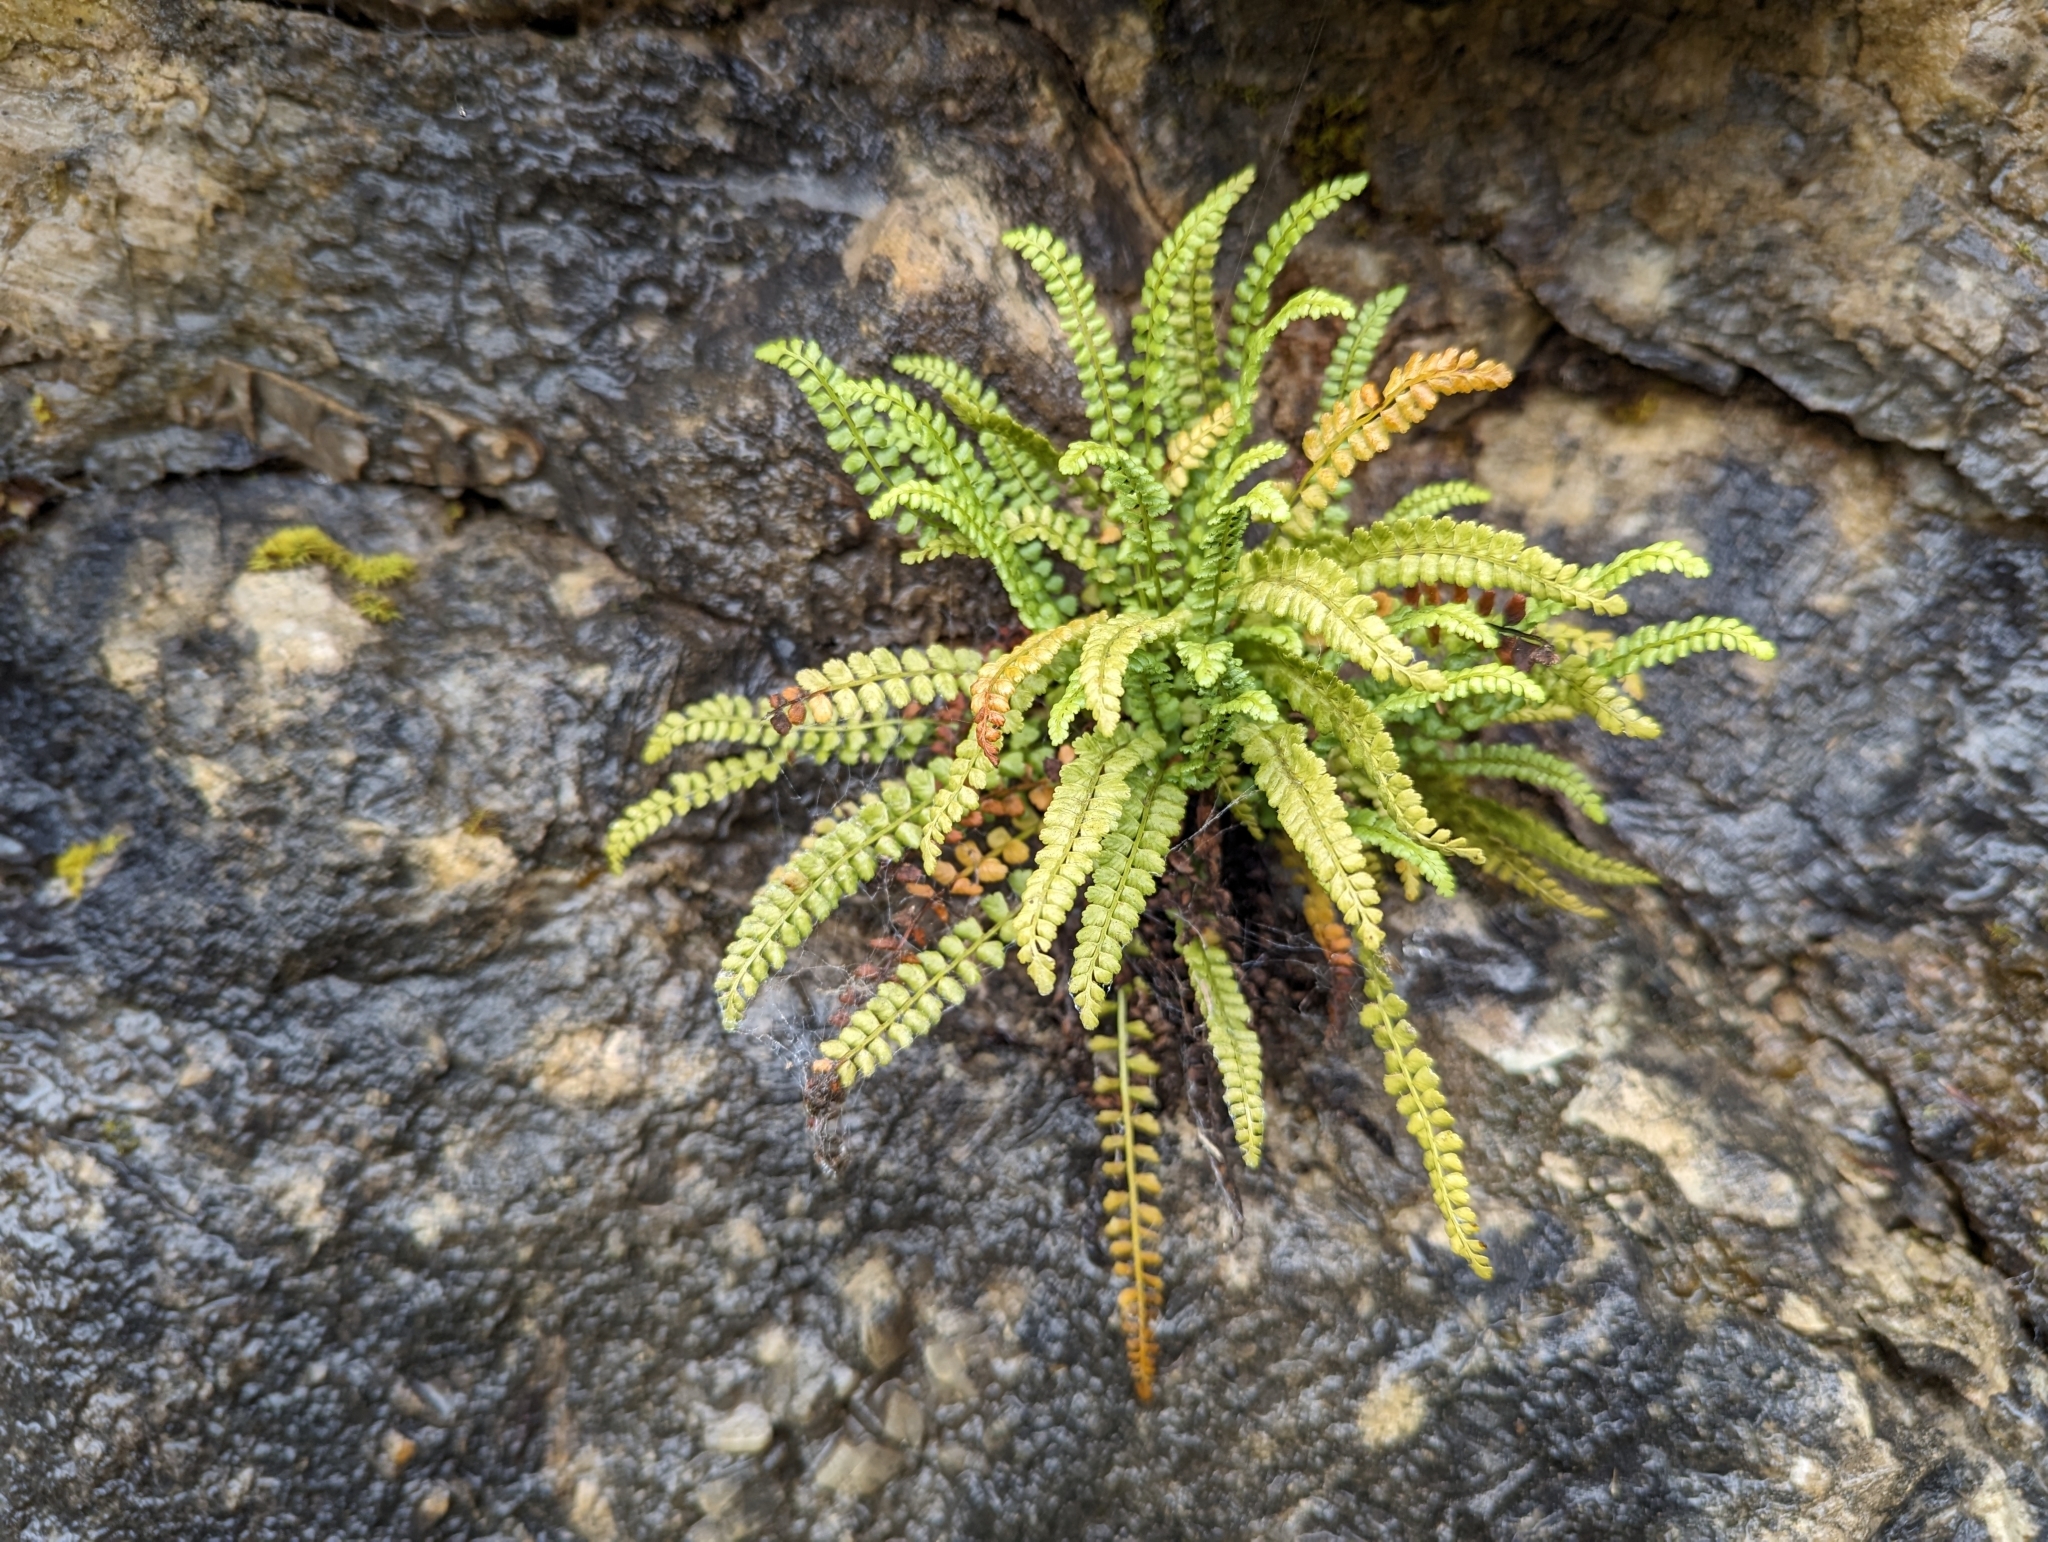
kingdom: Plantae
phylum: Tracheophyta
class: Polypodiopsida
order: Polypodiales
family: Aspleniaceae
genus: Asplenium
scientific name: Asplenium viride
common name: Green spleenwort
